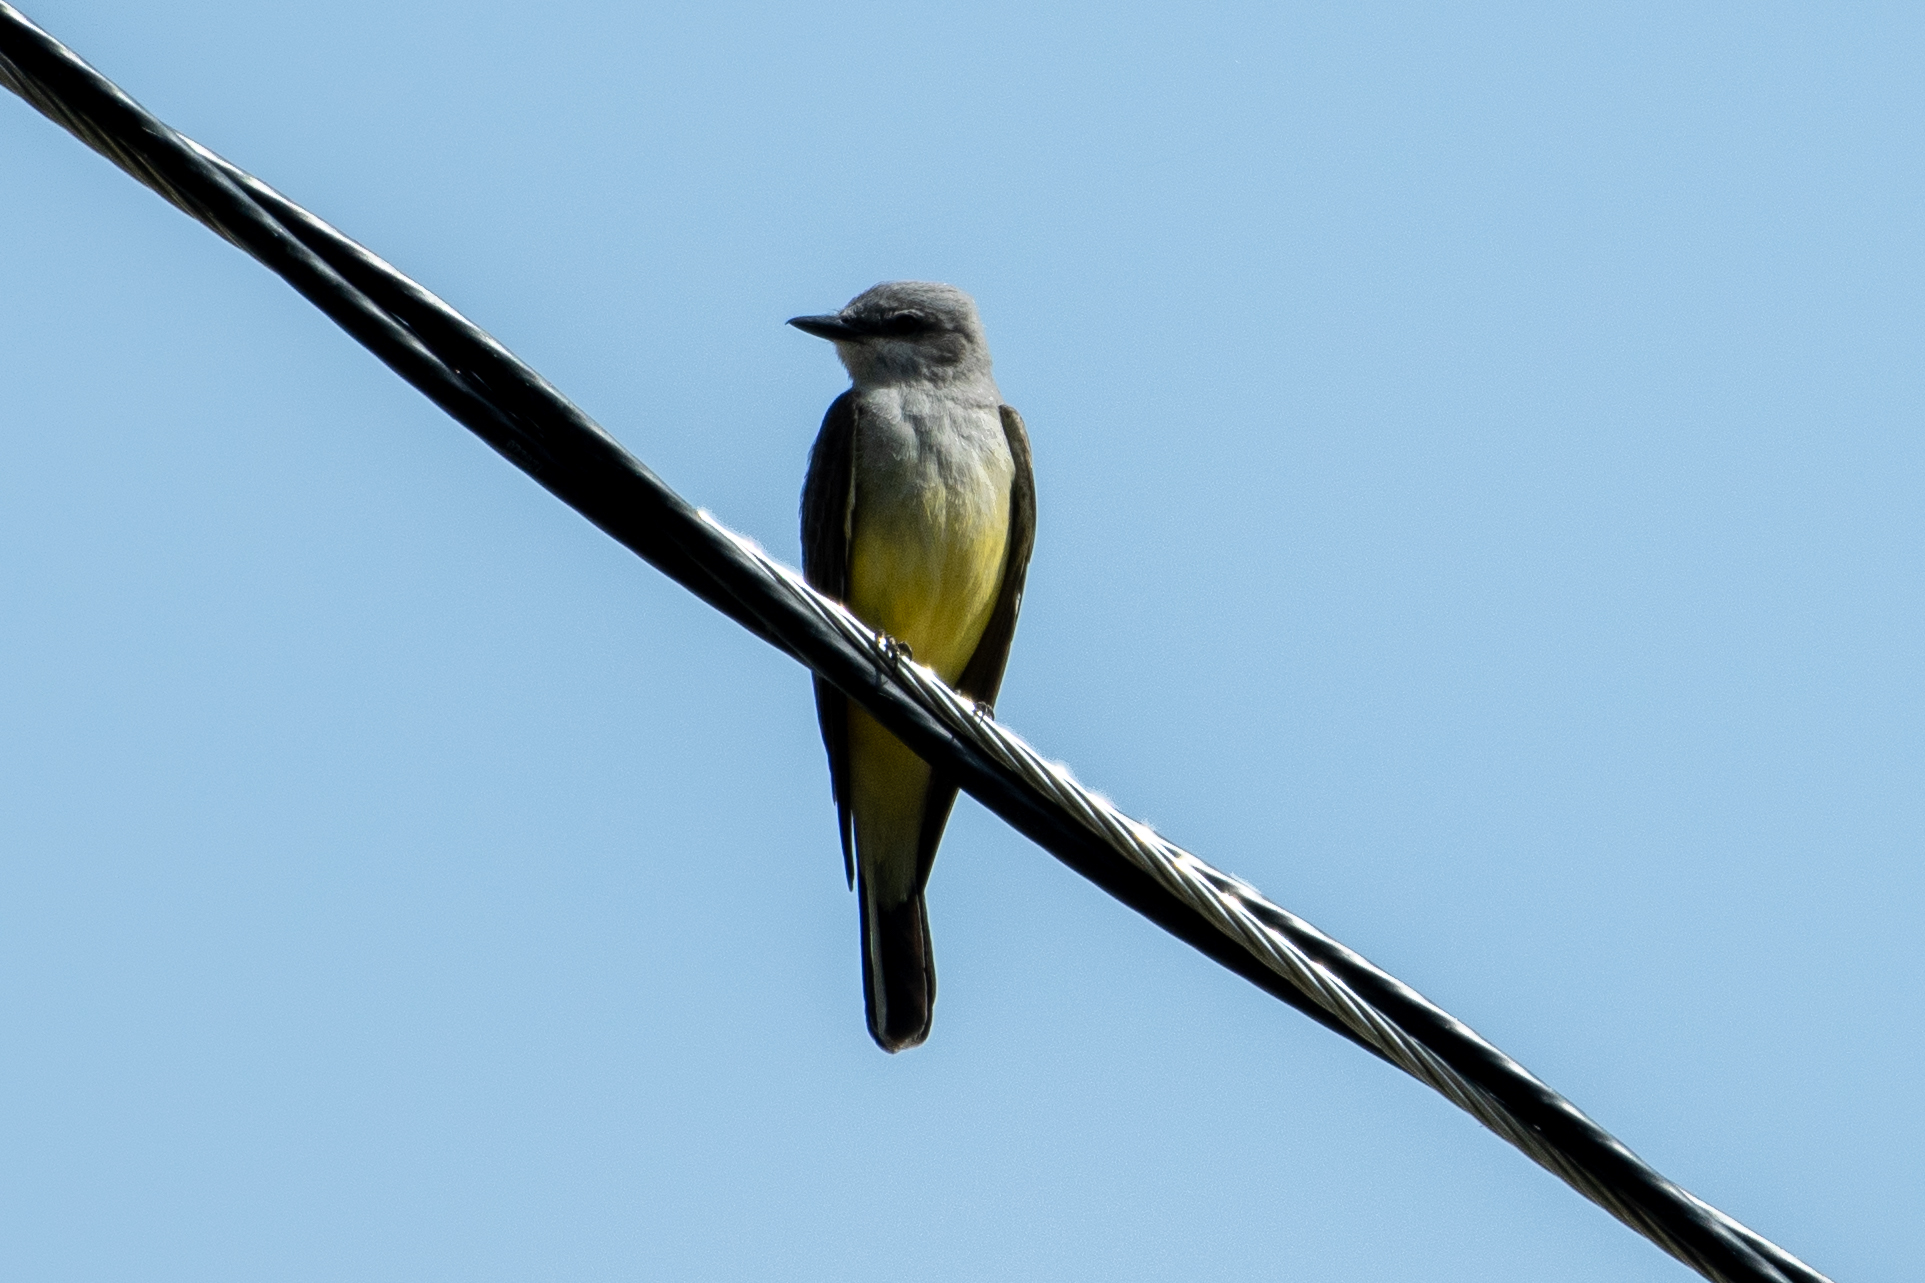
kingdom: Animalia
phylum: Chordata
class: Aves
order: Passeriformes
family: Tyrannidae
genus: Tyrannus
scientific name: Tyrannus verticalis
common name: Western kingbird
